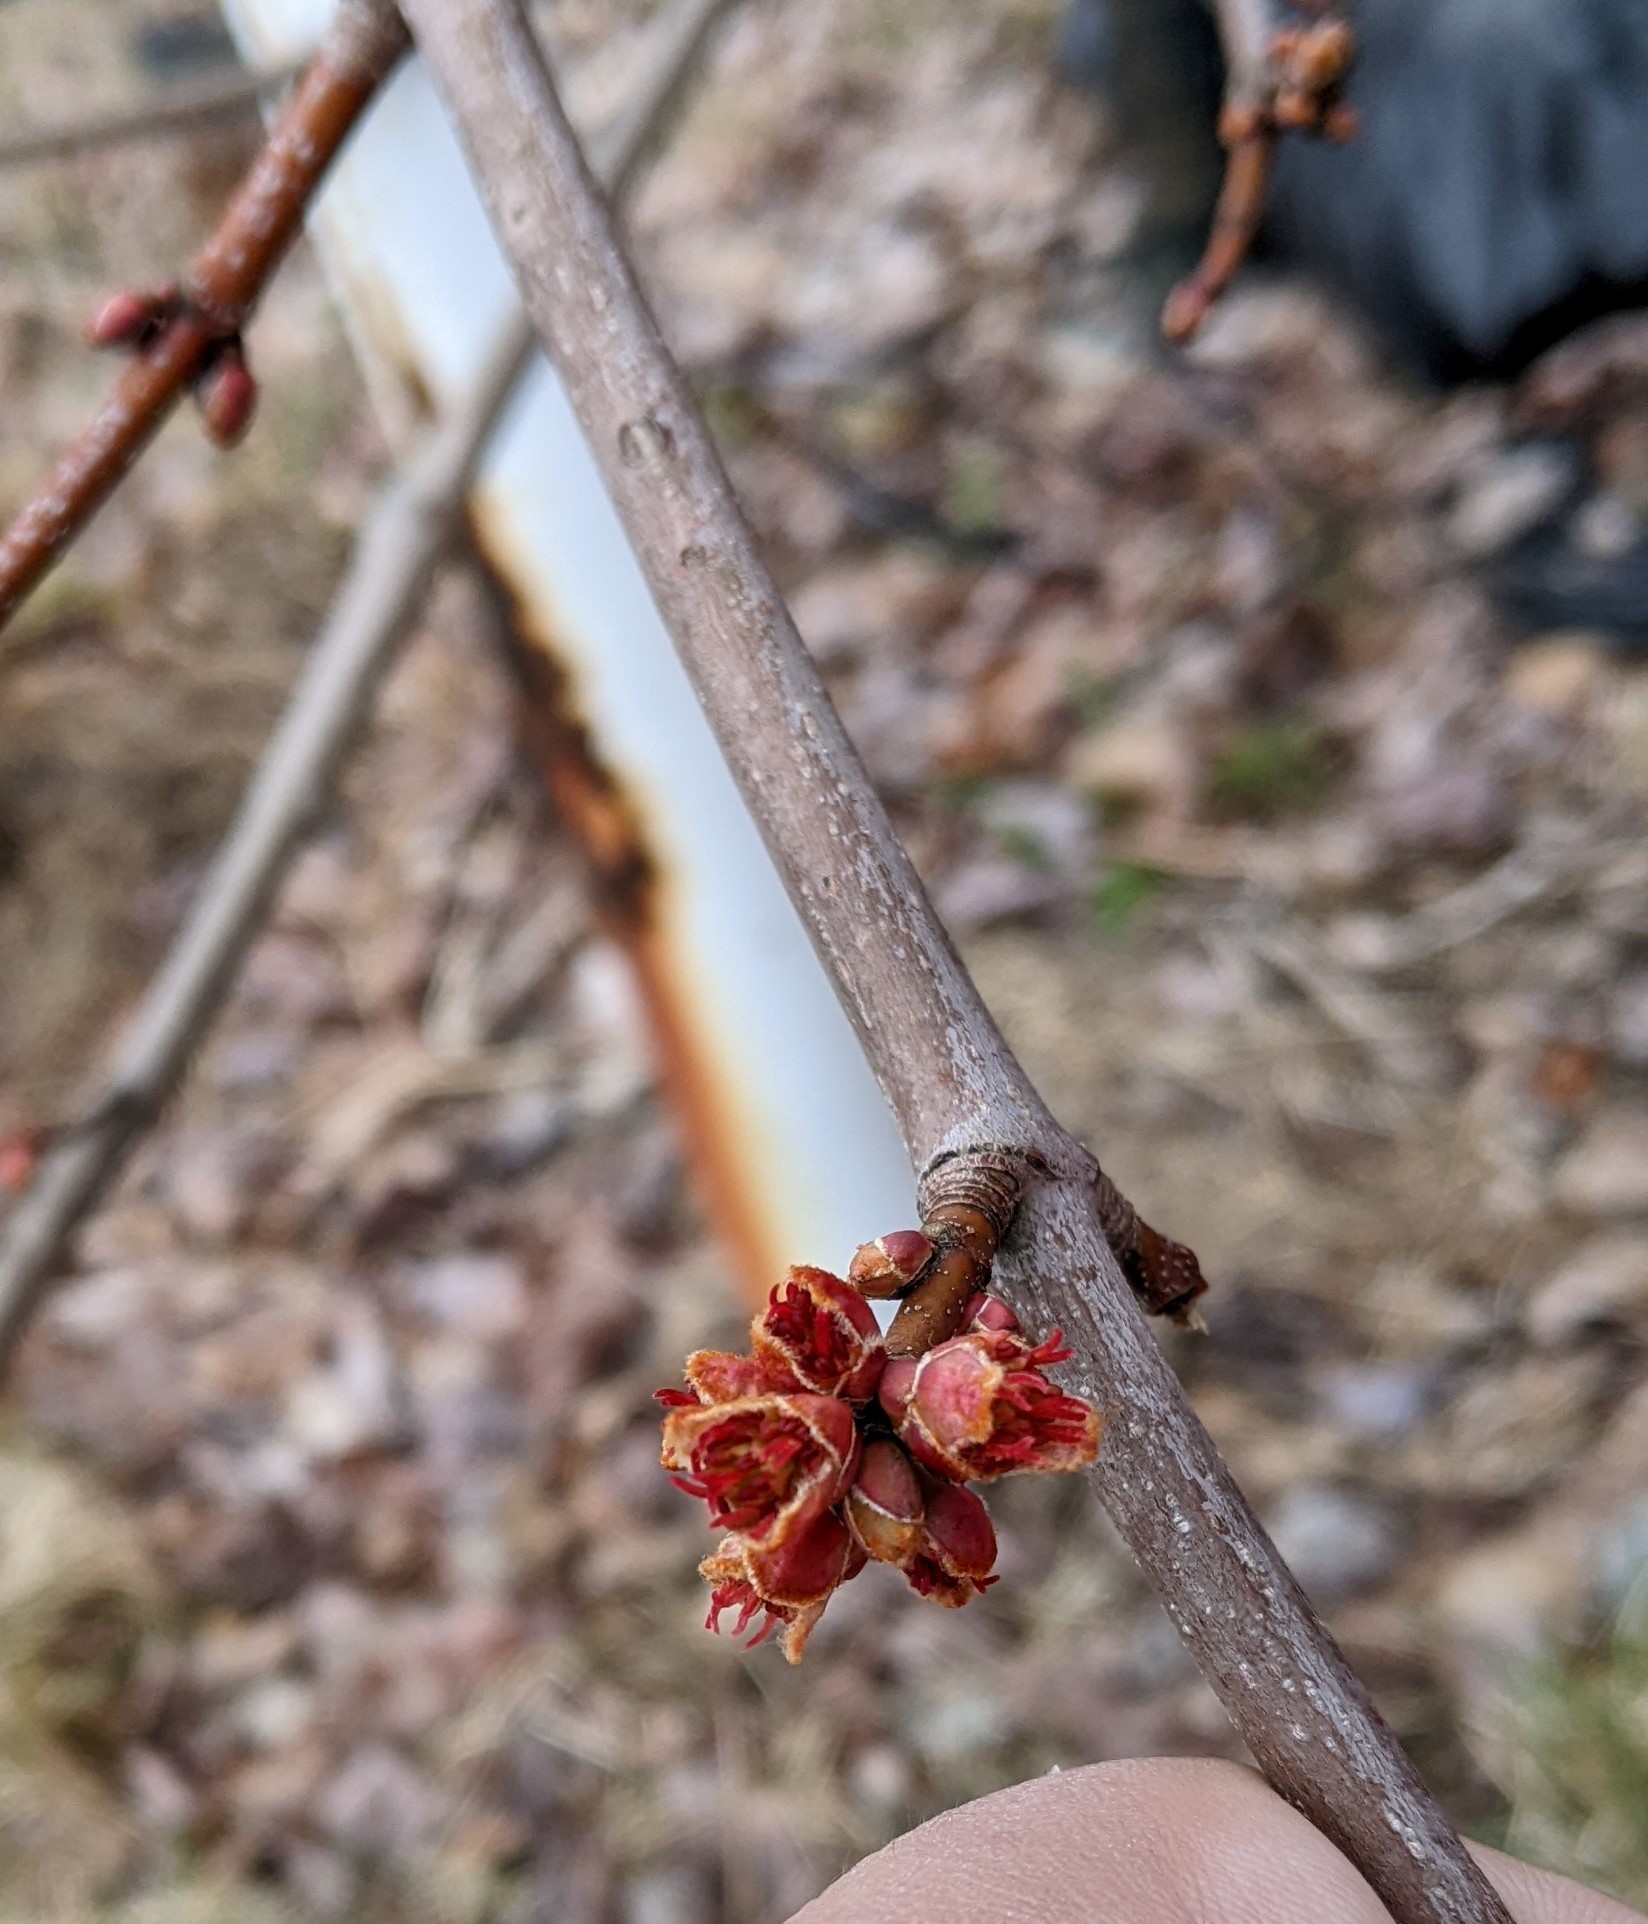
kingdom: Plantae
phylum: Tracheophyta
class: Magnoliopsida
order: Sapindales
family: Sapindaceae
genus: Acer
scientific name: Acer rubrum
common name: Red maple
